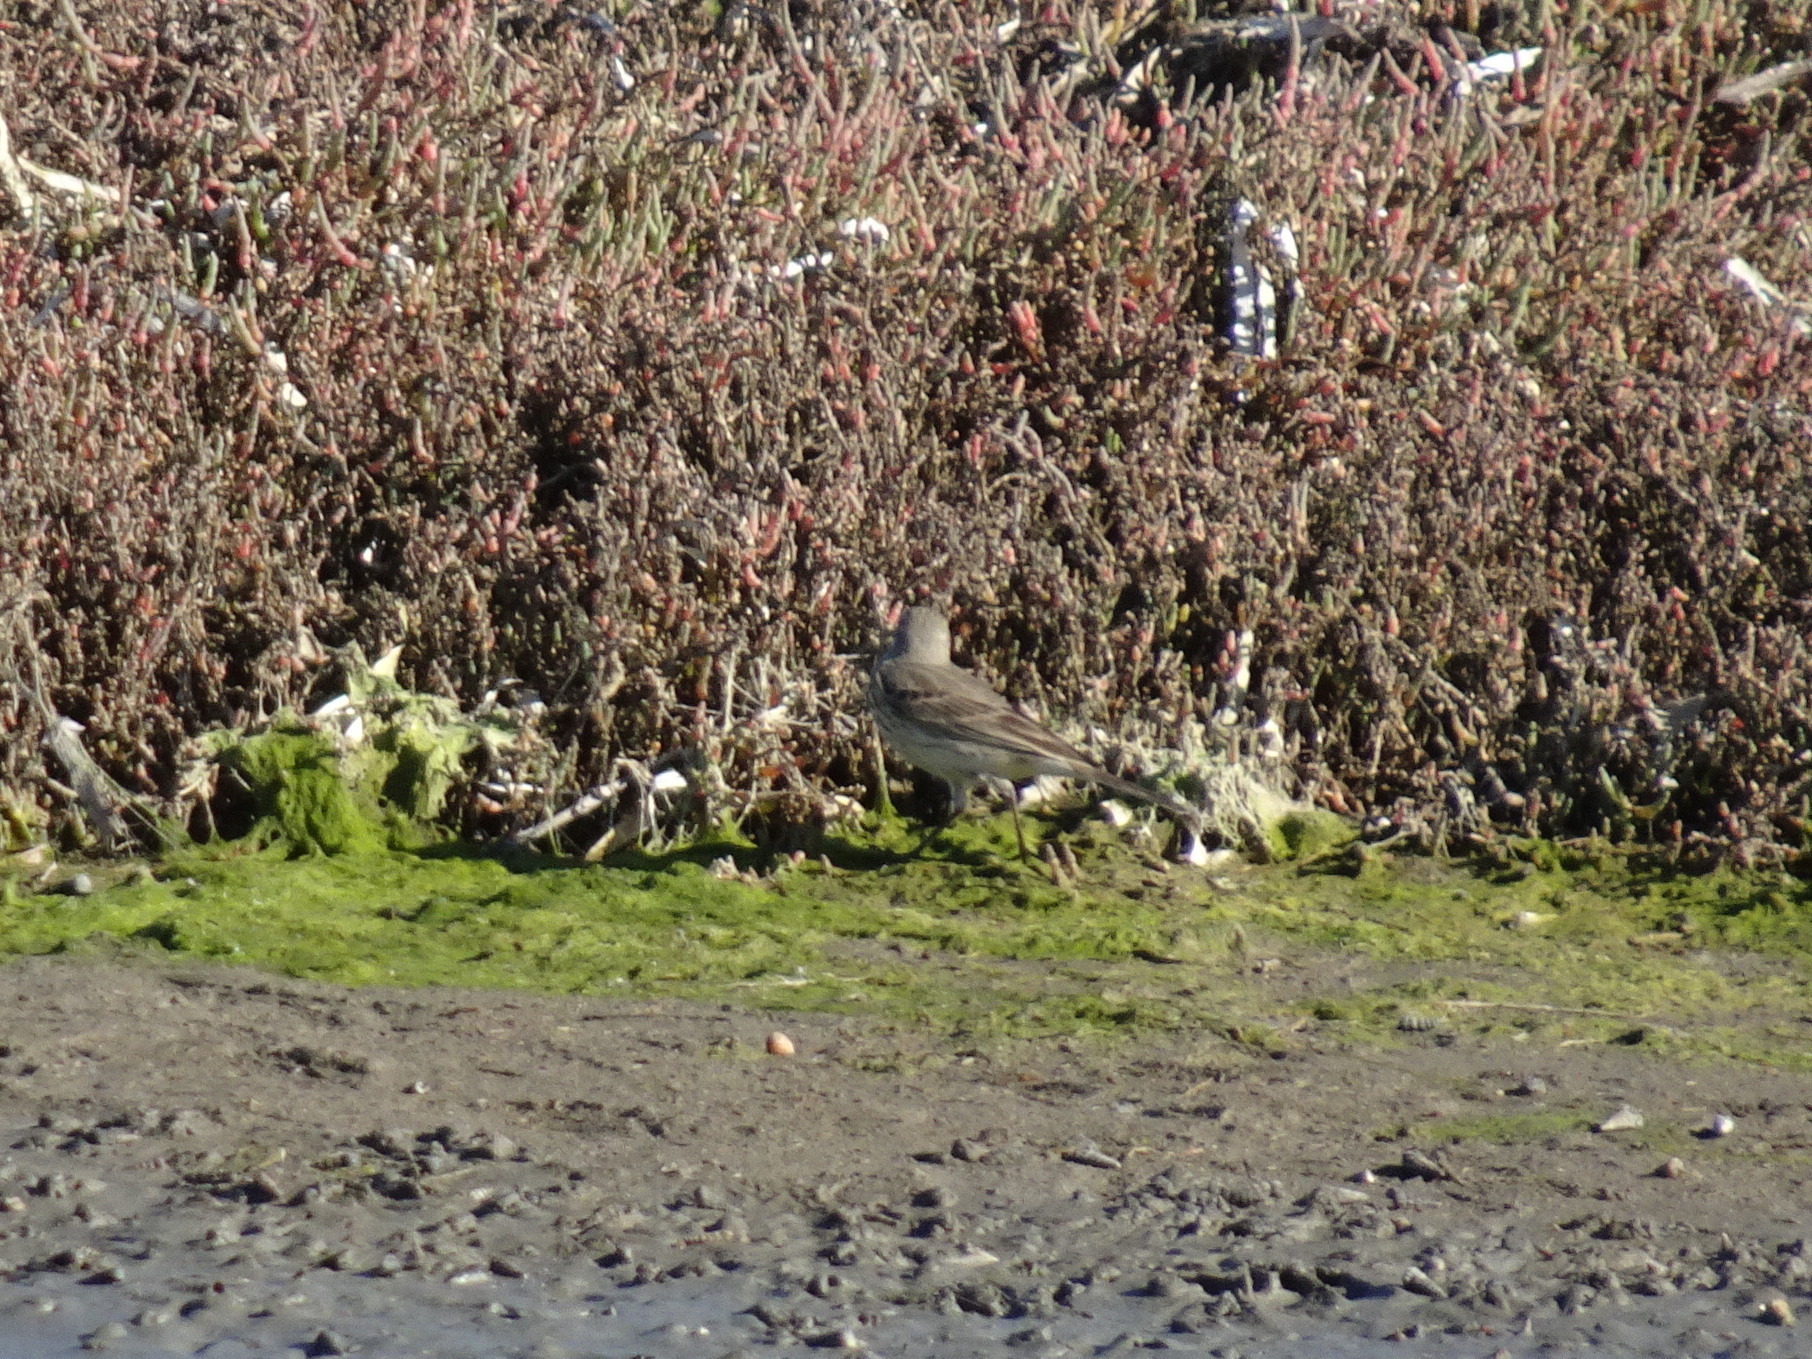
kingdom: Animalia
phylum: Chordata
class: Aves
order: Passeriformes
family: Motacillidae
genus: Anthus
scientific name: Anthus rubescens
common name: Buff-bellied pipit
